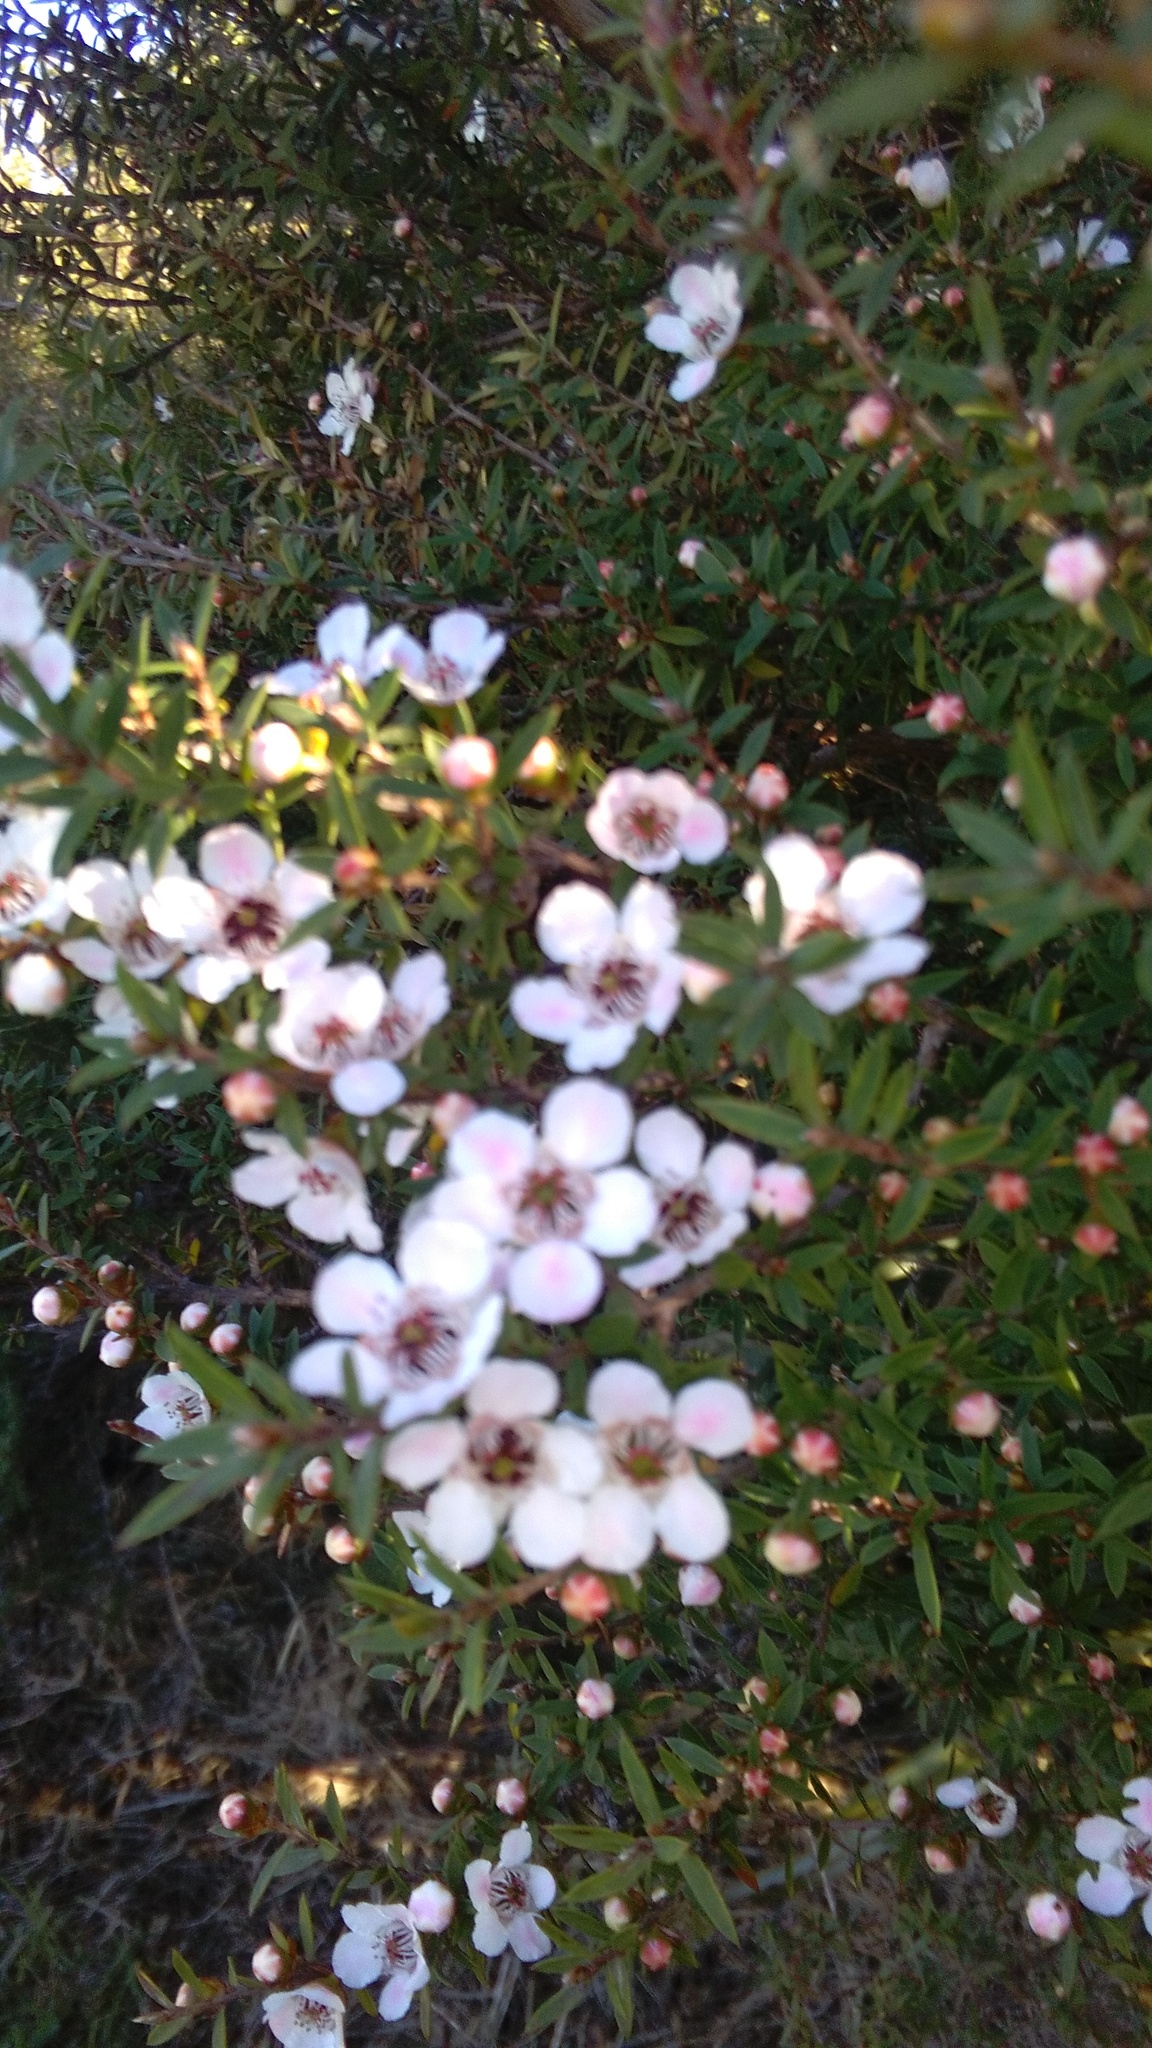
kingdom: Plantae
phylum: Tracheophyta
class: Magnoliopsida
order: Myrtales
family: Myrtaceae
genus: Leptospermum
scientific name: Leptospermum scoparium
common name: Broom tea-tree
